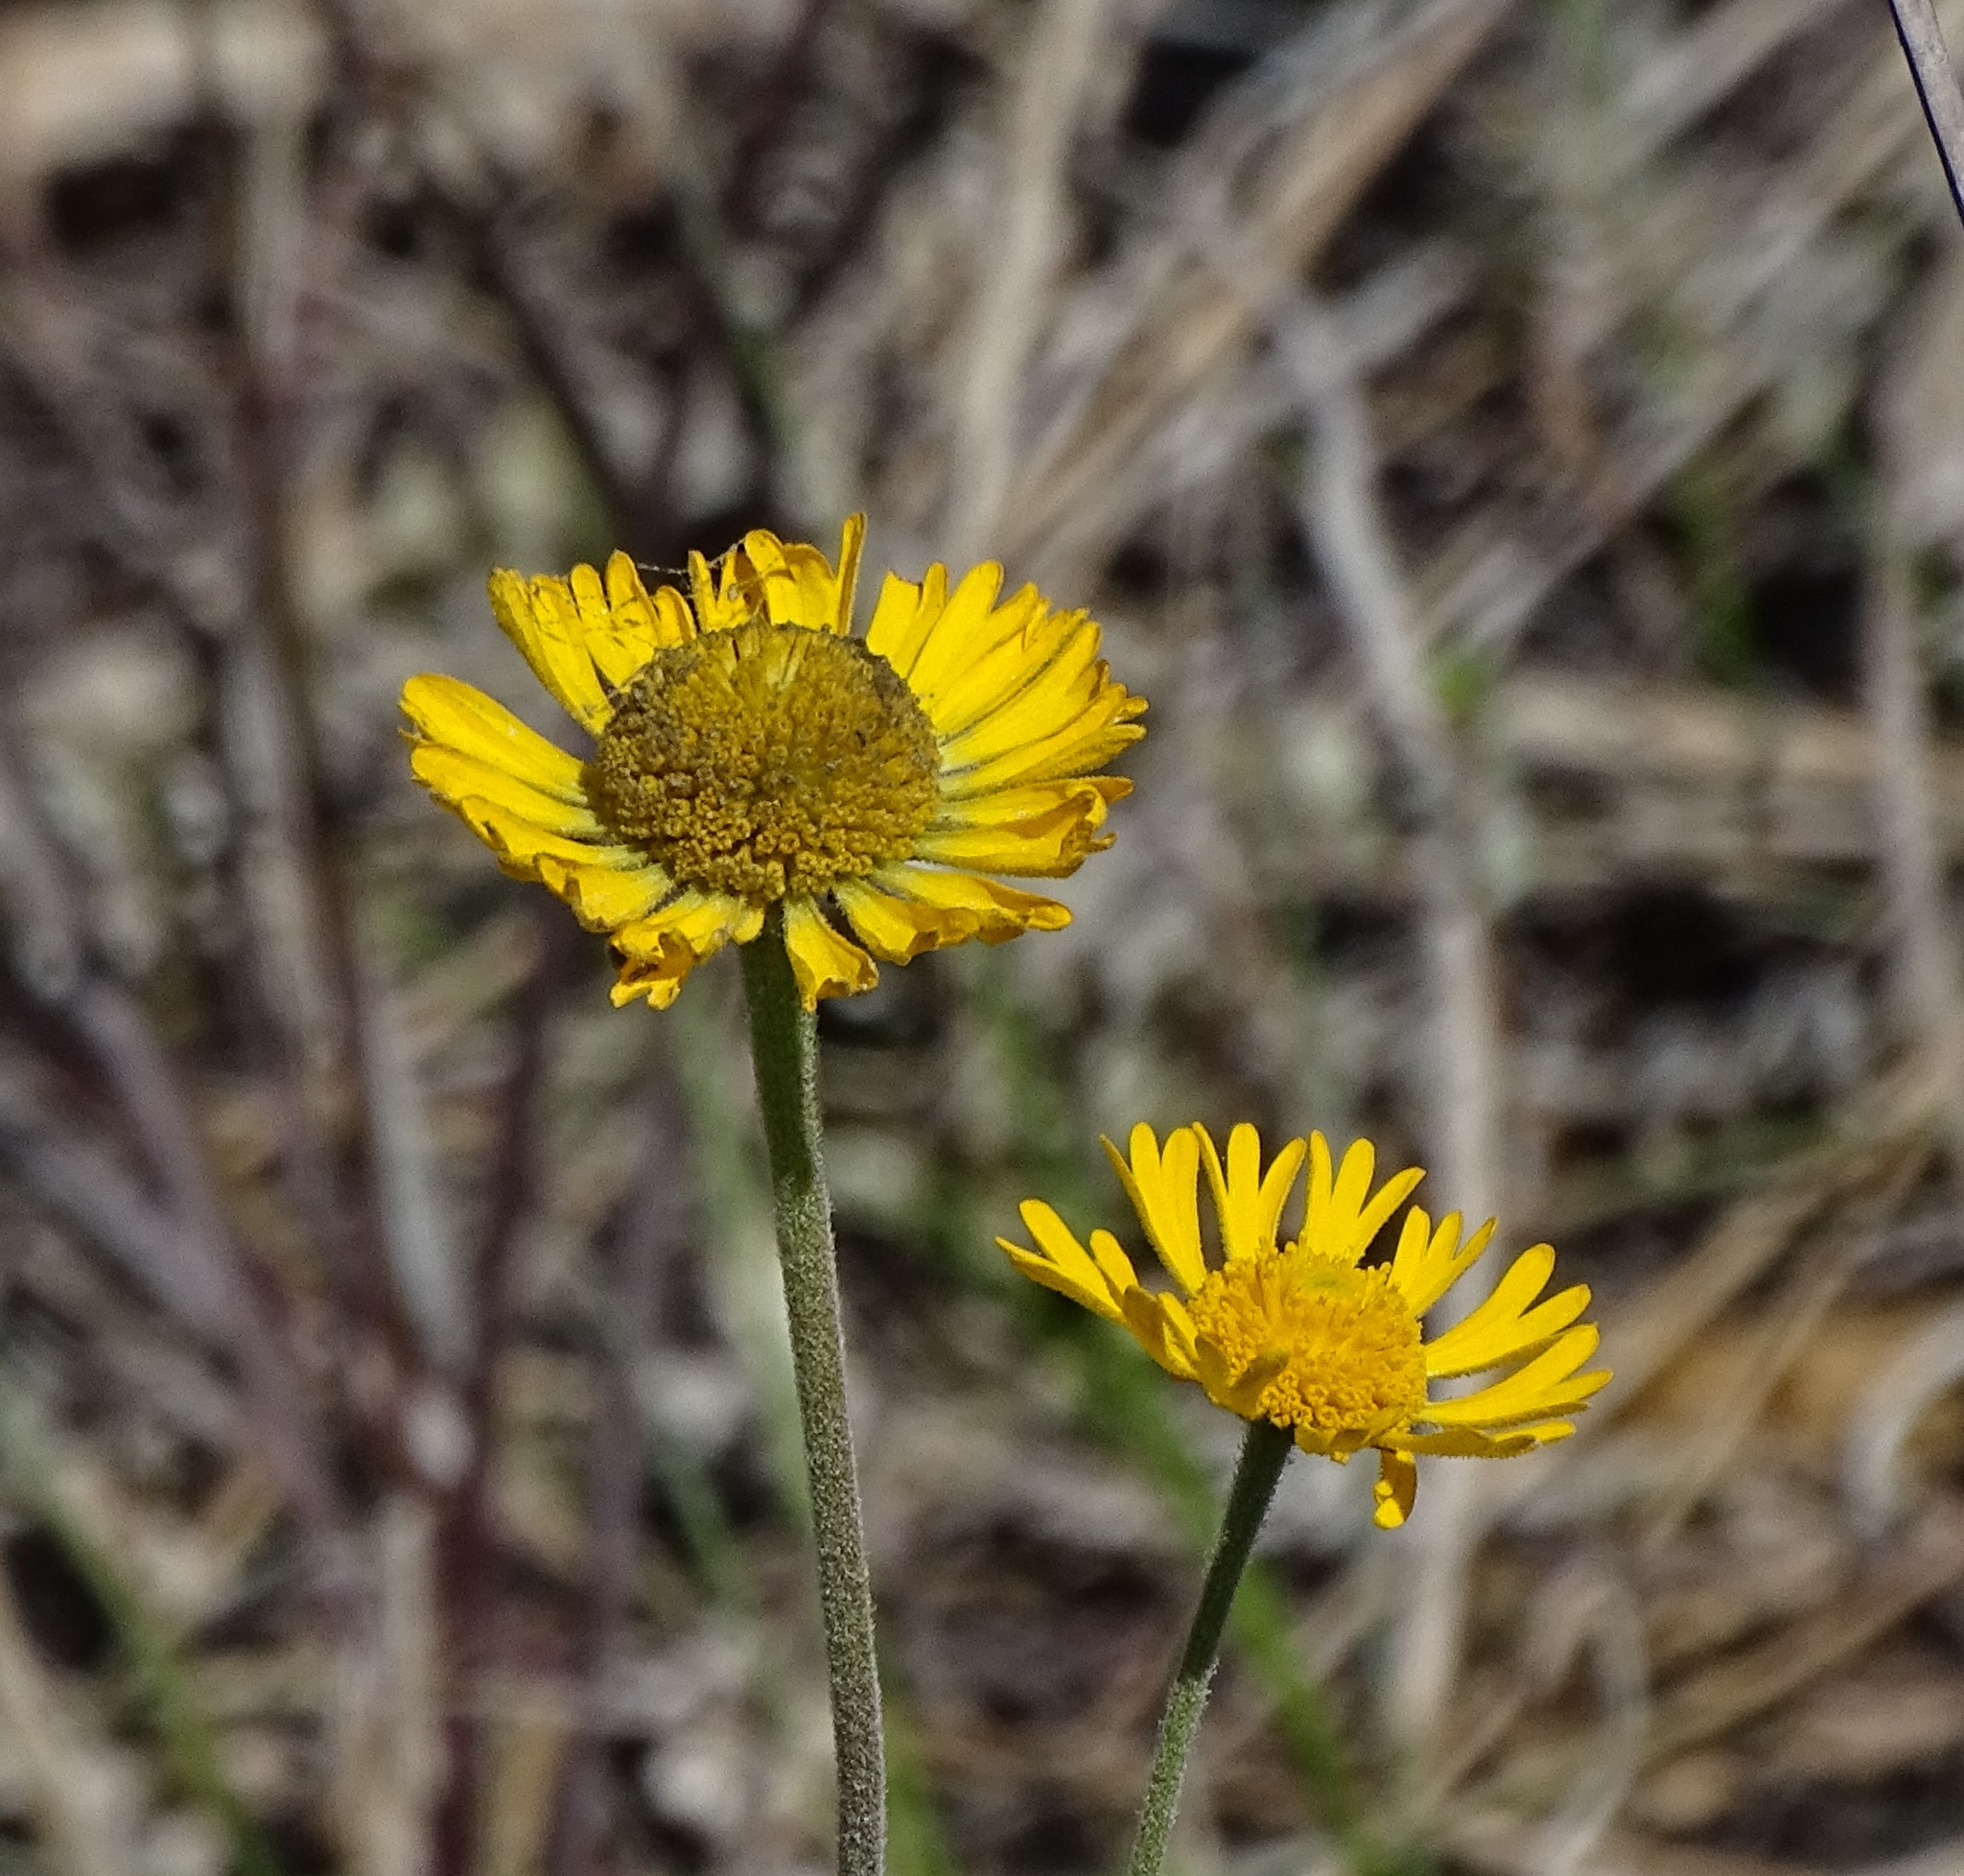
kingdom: Plantae
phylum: Tracheophyta
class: Magnoliopsida
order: Asterales
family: Asteraceae
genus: Helenium
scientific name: Helenium pinnatifidum
